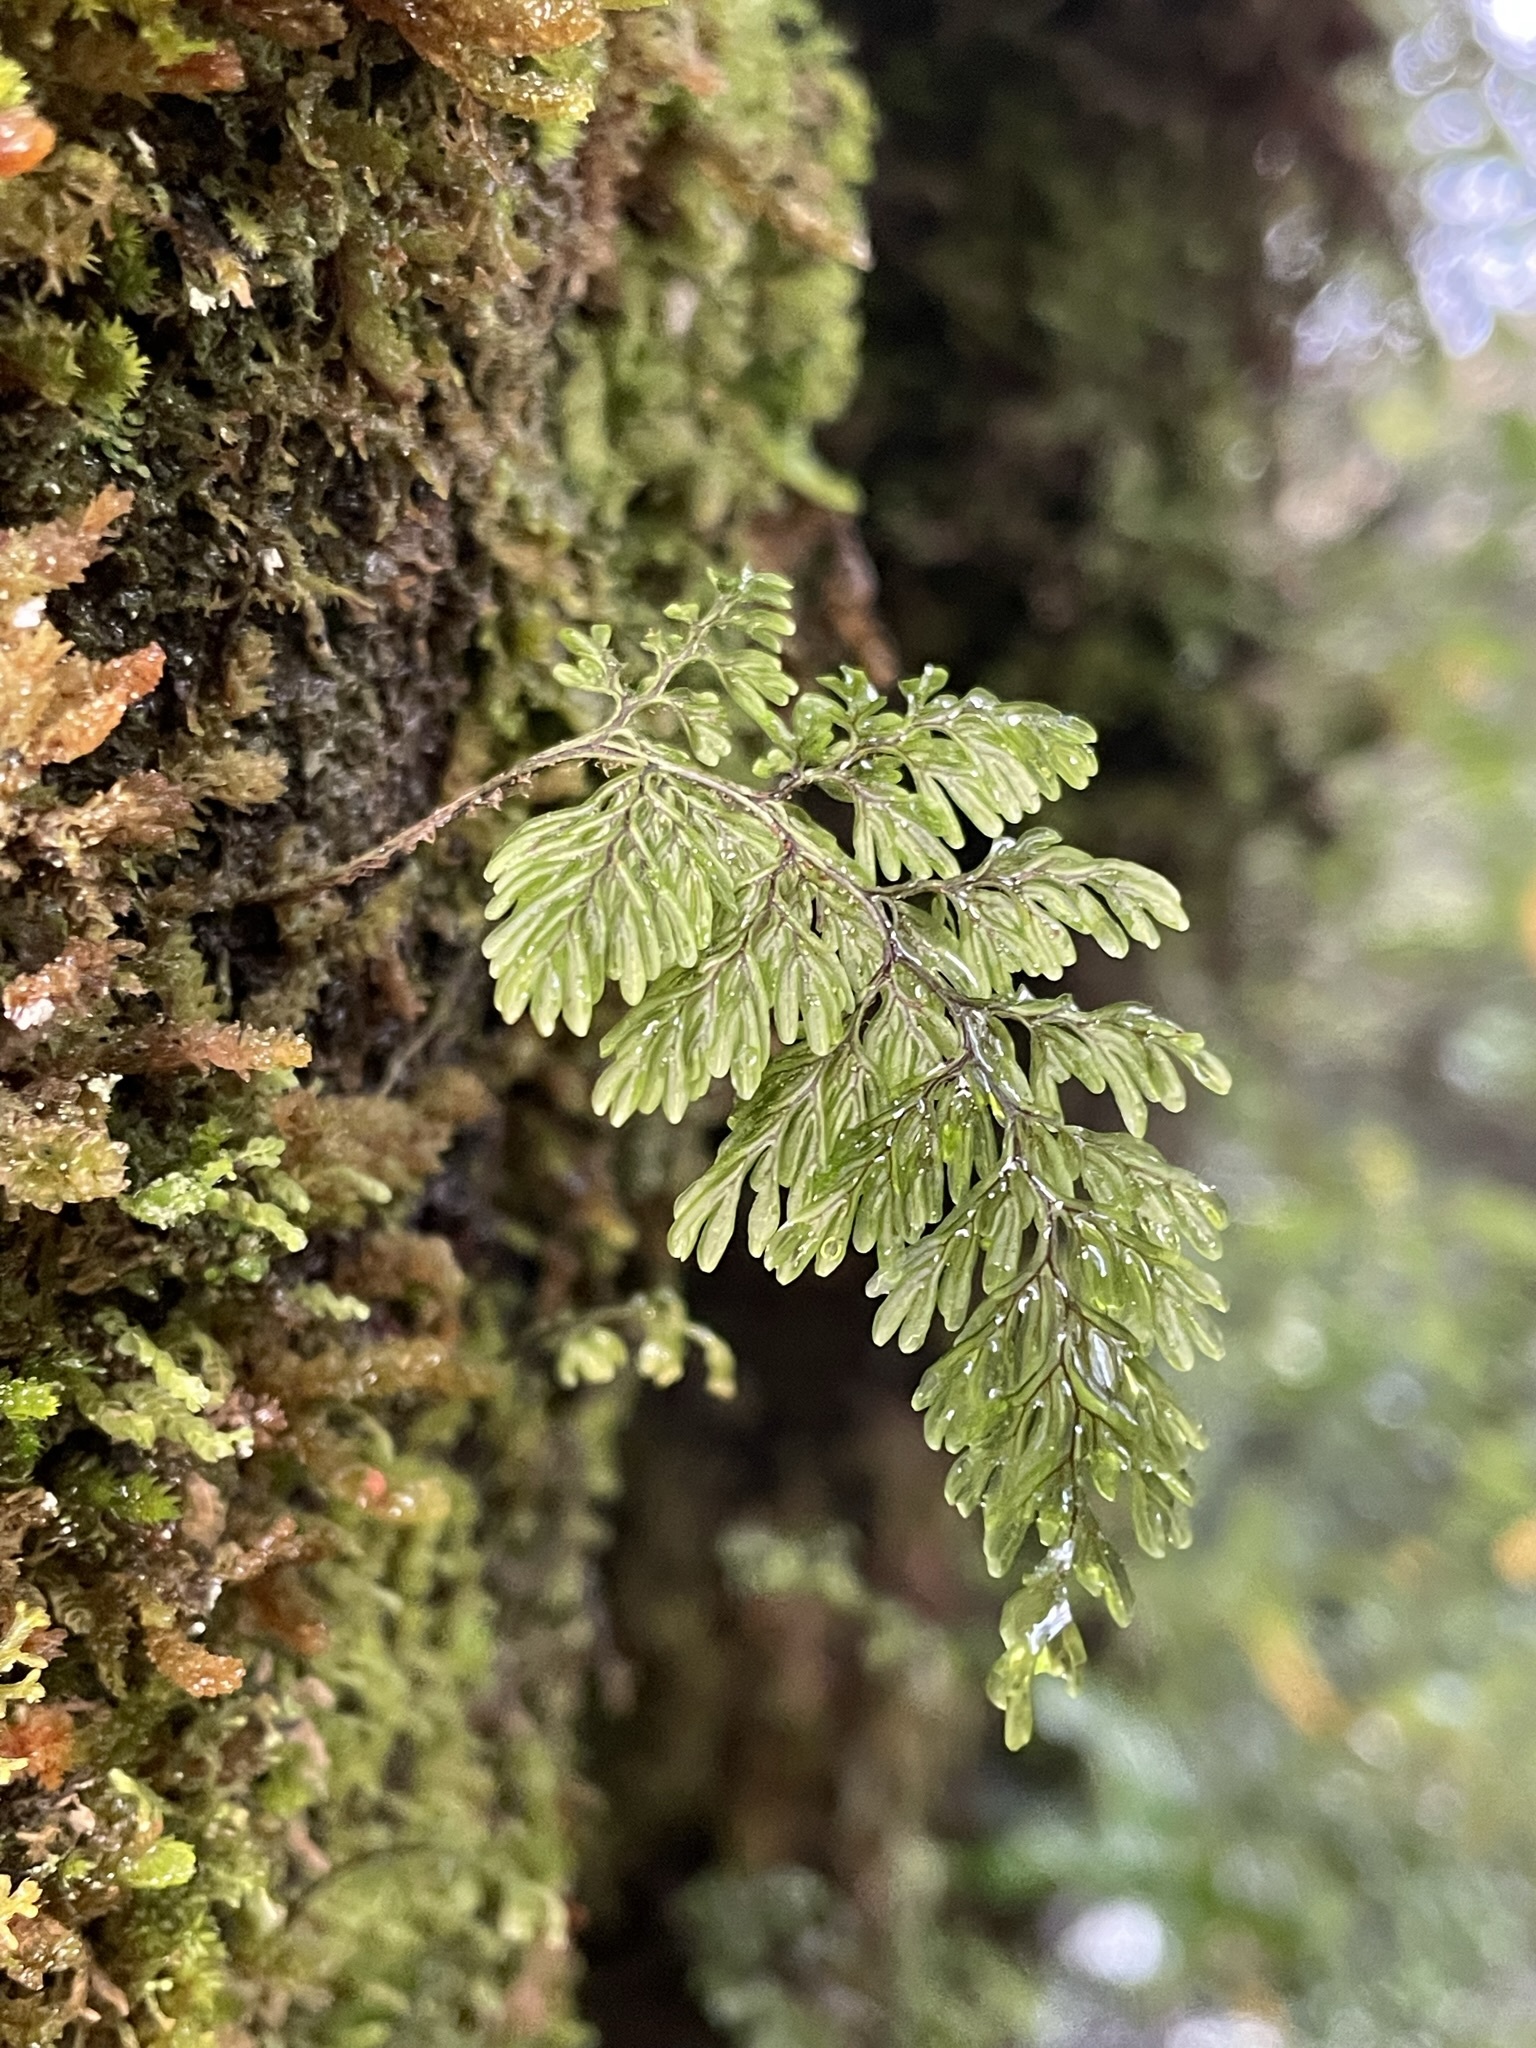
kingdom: Plantae
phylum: Tracheophyta
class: Polypodiopsida
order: Hymenophyllales
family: Hymenophyllaceae
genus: Hymenophyllum
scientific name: Hymenophyllum scabrum
